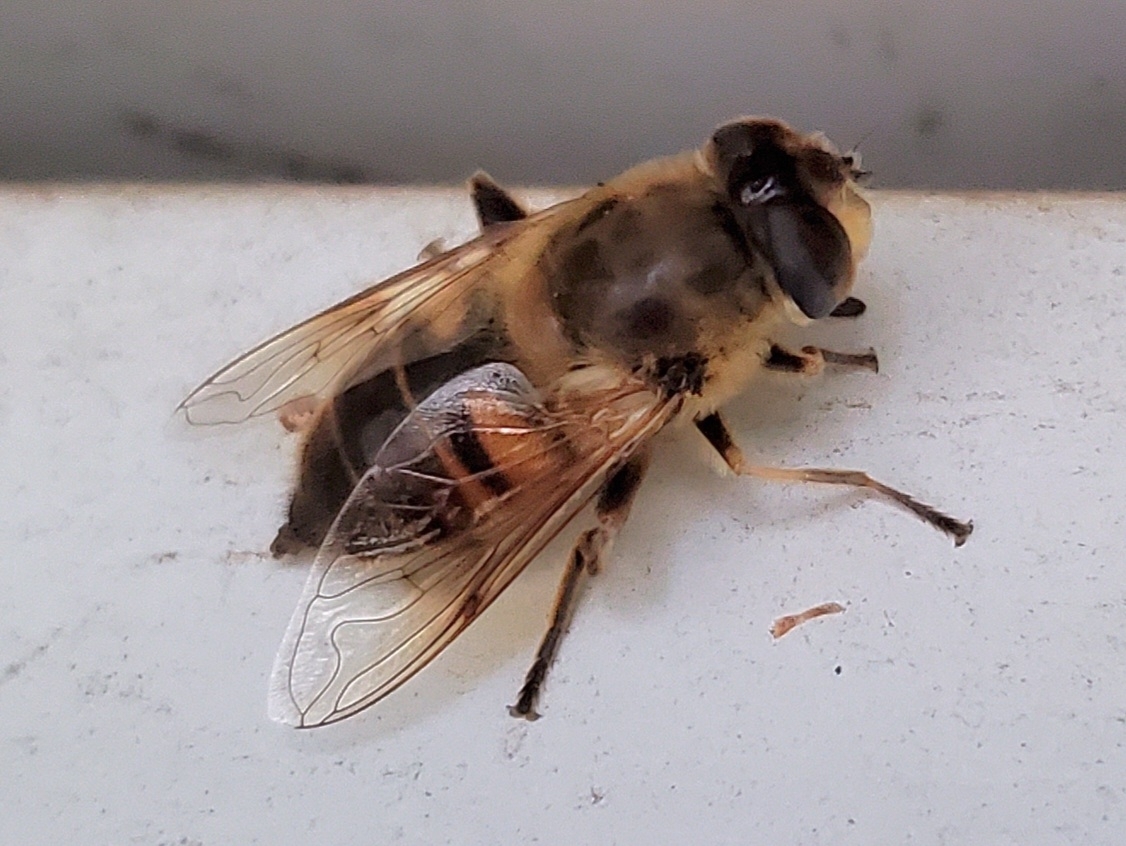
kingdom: Animalia
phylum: Arthropoda
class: Insecta
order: Diptera
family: Syrphidae
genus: Eristalis
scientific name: Eristalis tenax
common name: Drone fly
